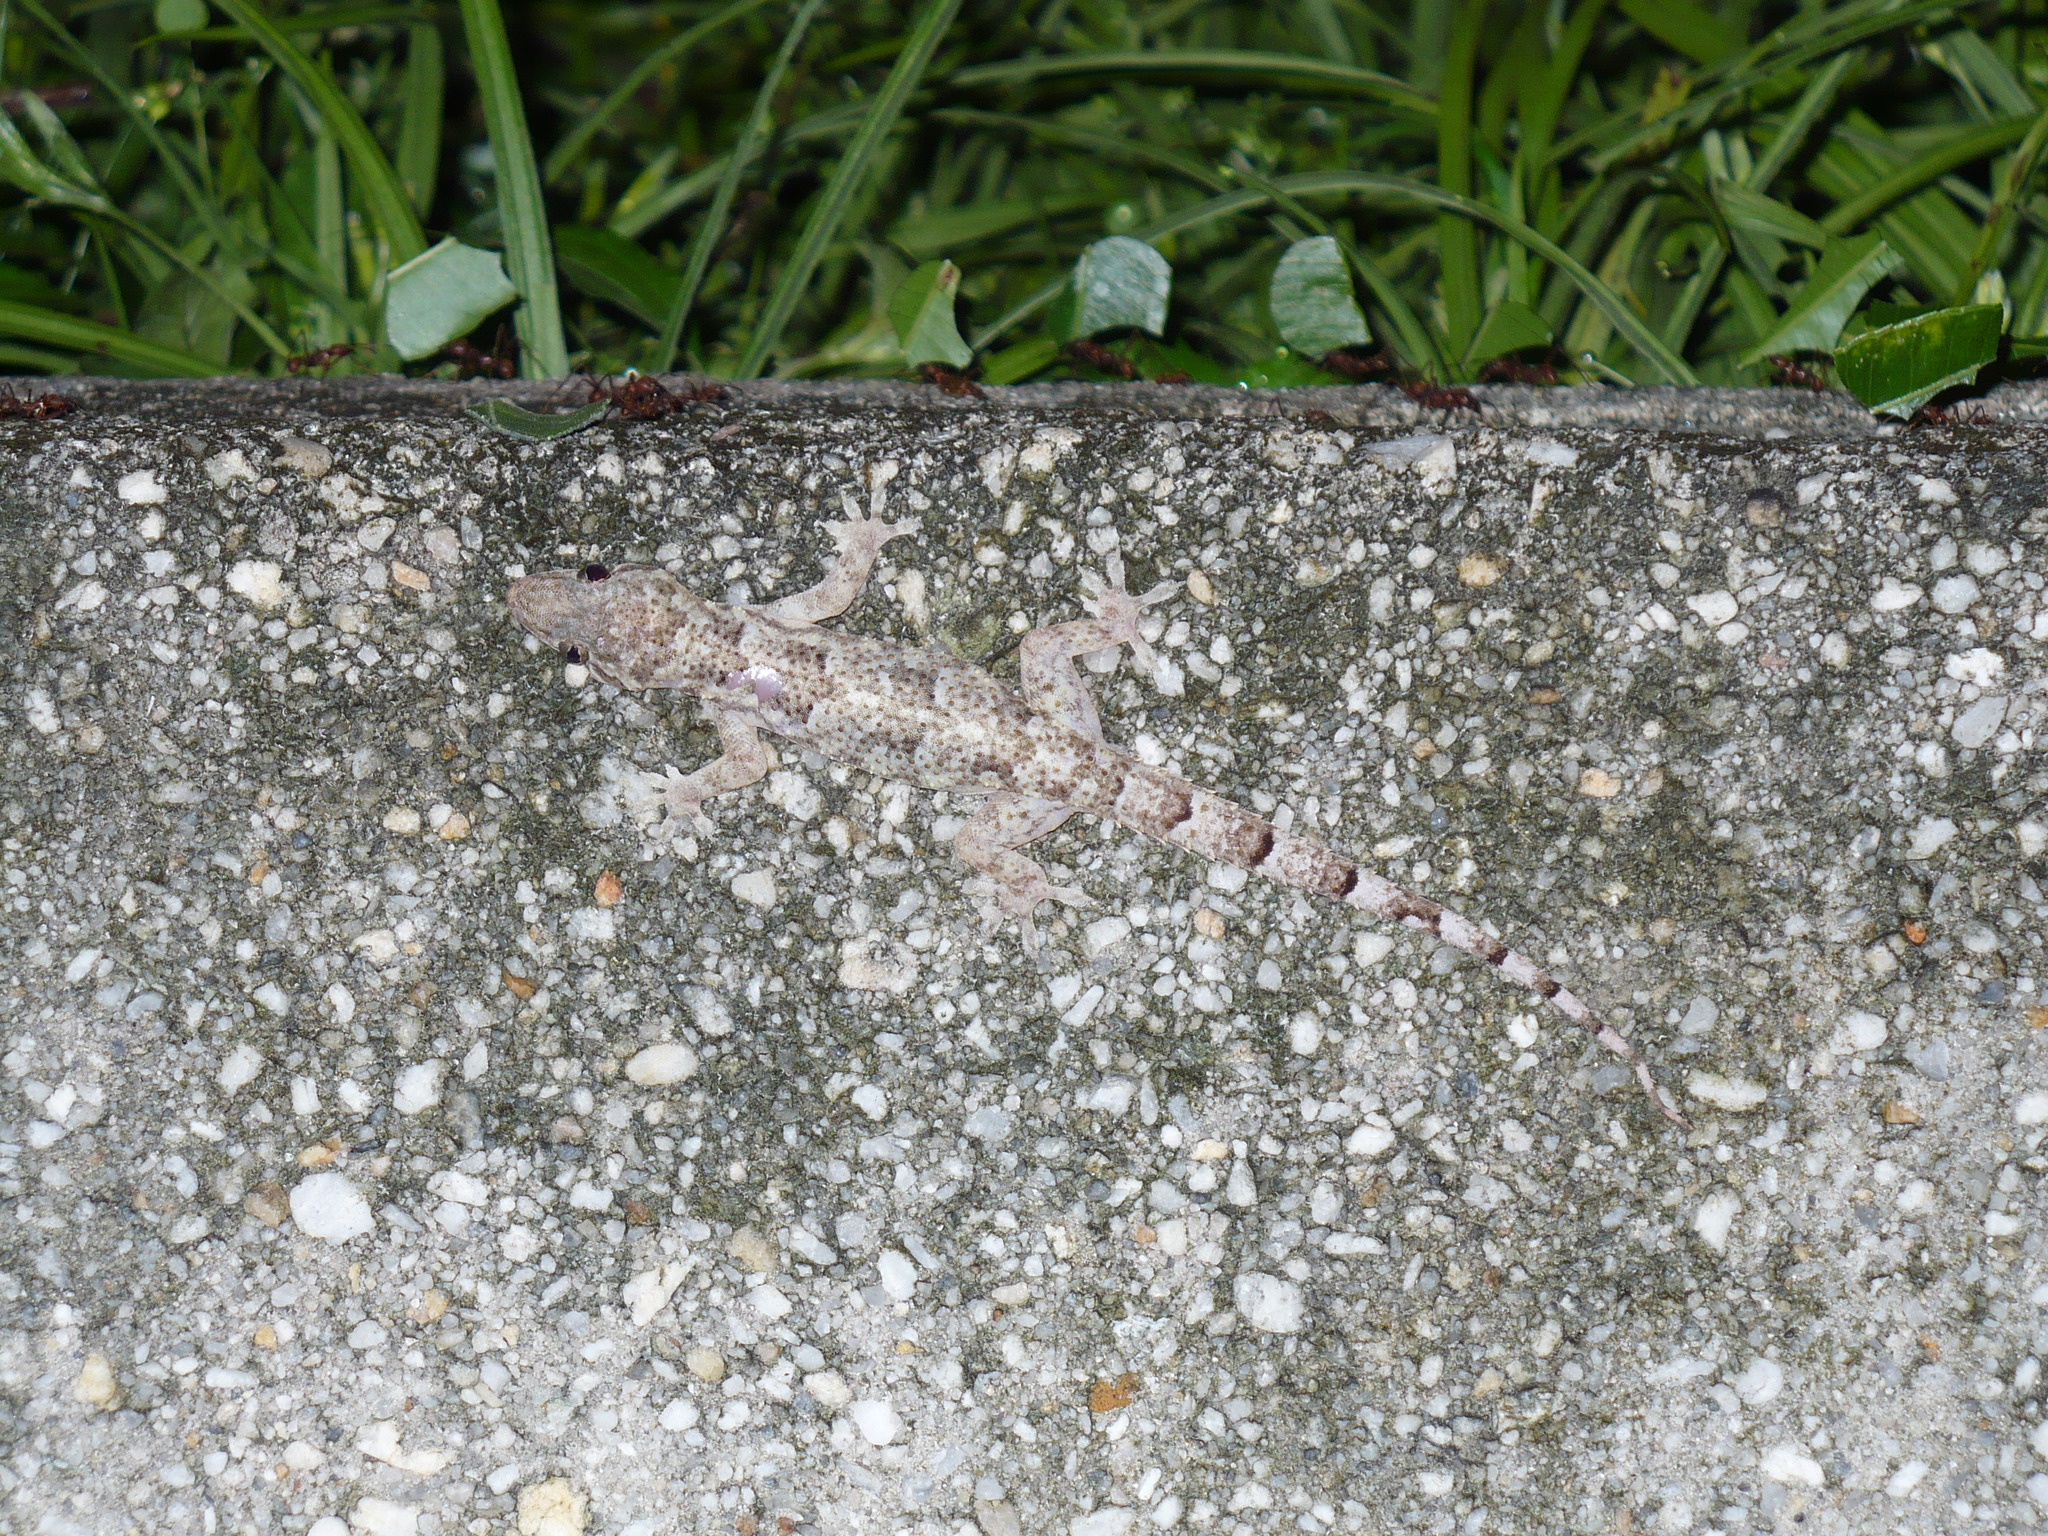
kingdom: Animalia
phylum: Chordata
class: Squamata
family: Gekkonidae
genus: Hemidactylus
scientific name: Hemidactylus mabouia
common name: House gecko
